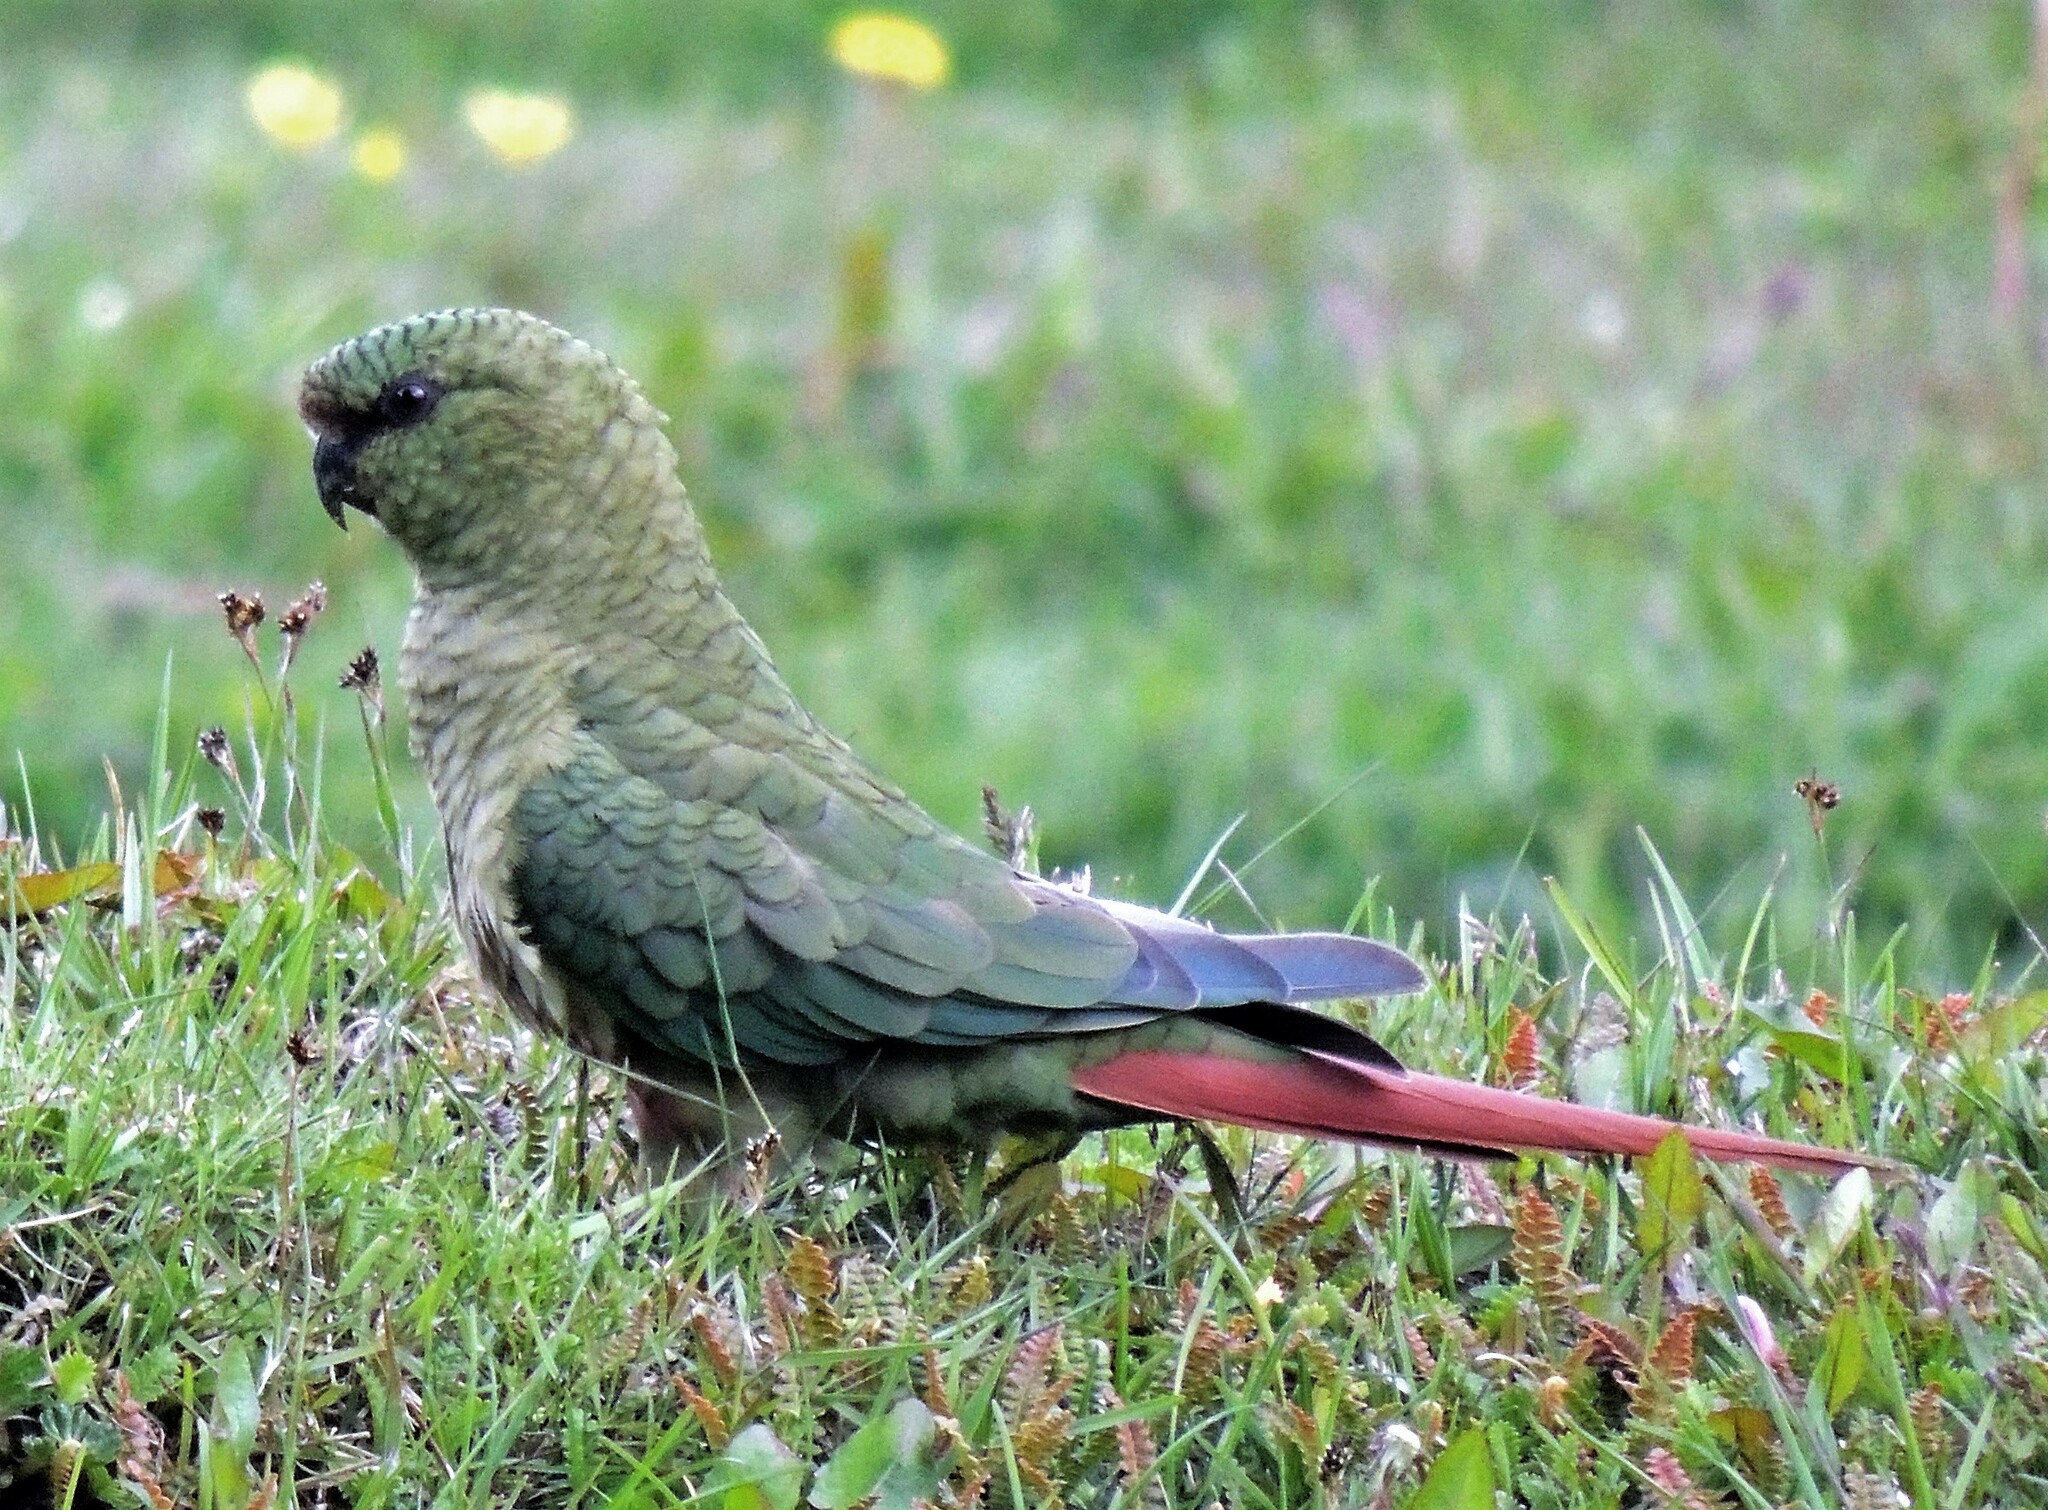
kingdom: Animalia
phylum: Chordata
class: Aves
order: Psittaciformes
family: Psittacidae
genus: Enicognathus
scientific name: Enicognathus ferrugineus
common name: Austral parakeet
